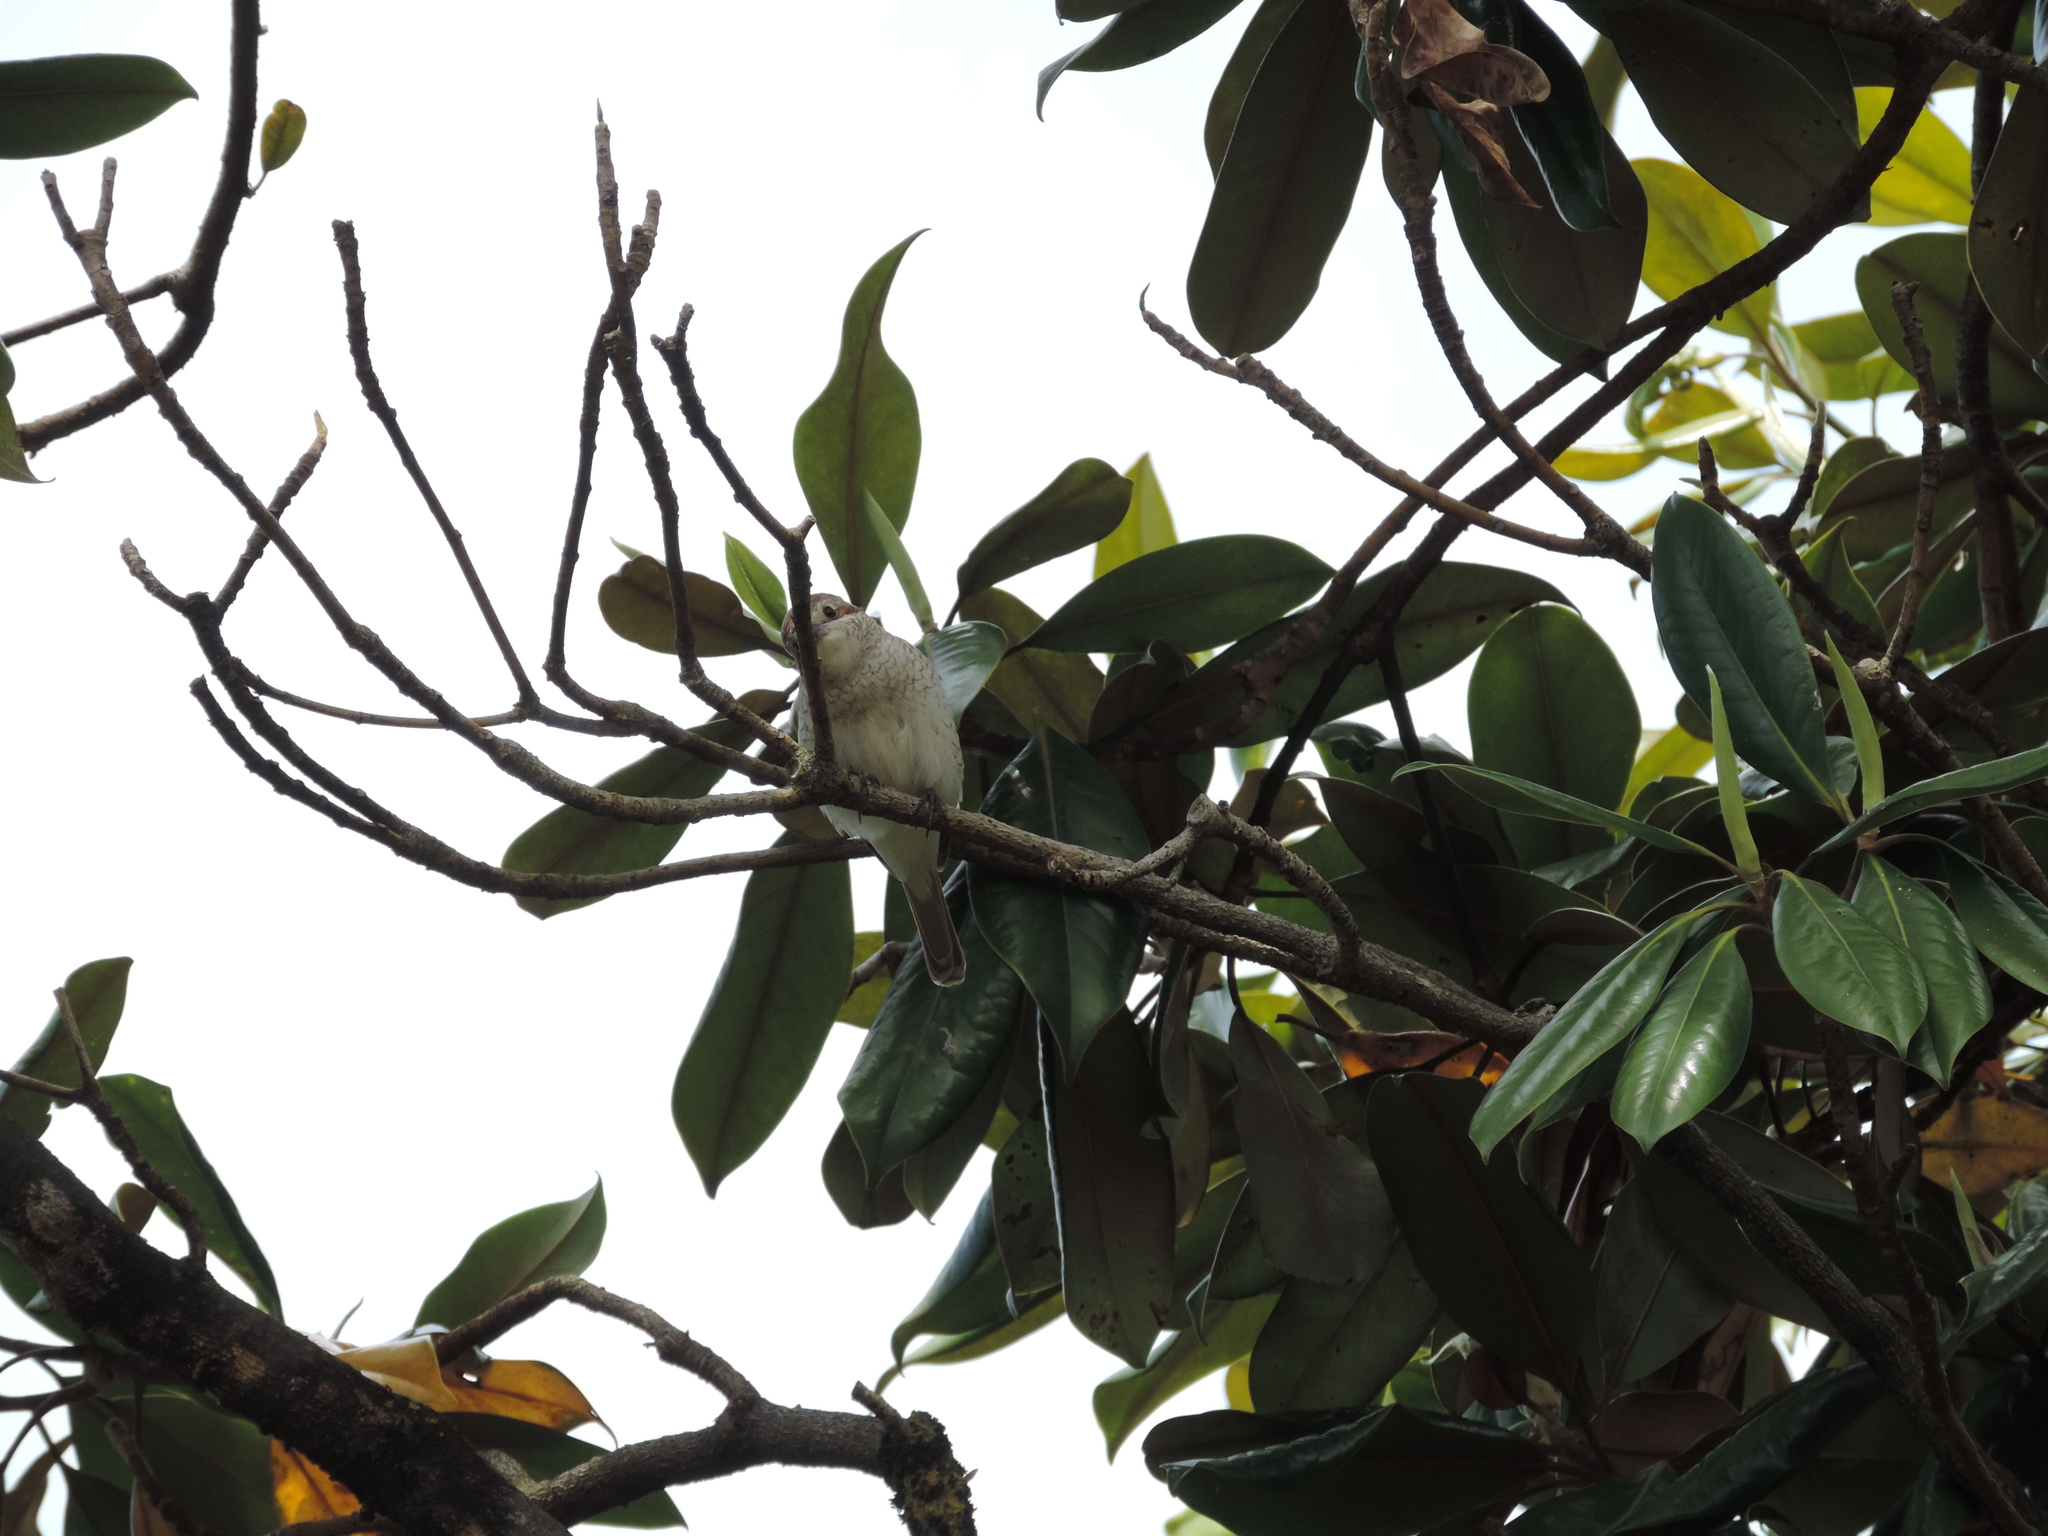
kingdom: Animalia
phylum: Chordata
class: Aves
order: Passeriformes
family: Laniidae
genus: Lanius
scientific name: Lanius collurio
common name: Red-backed shrike
